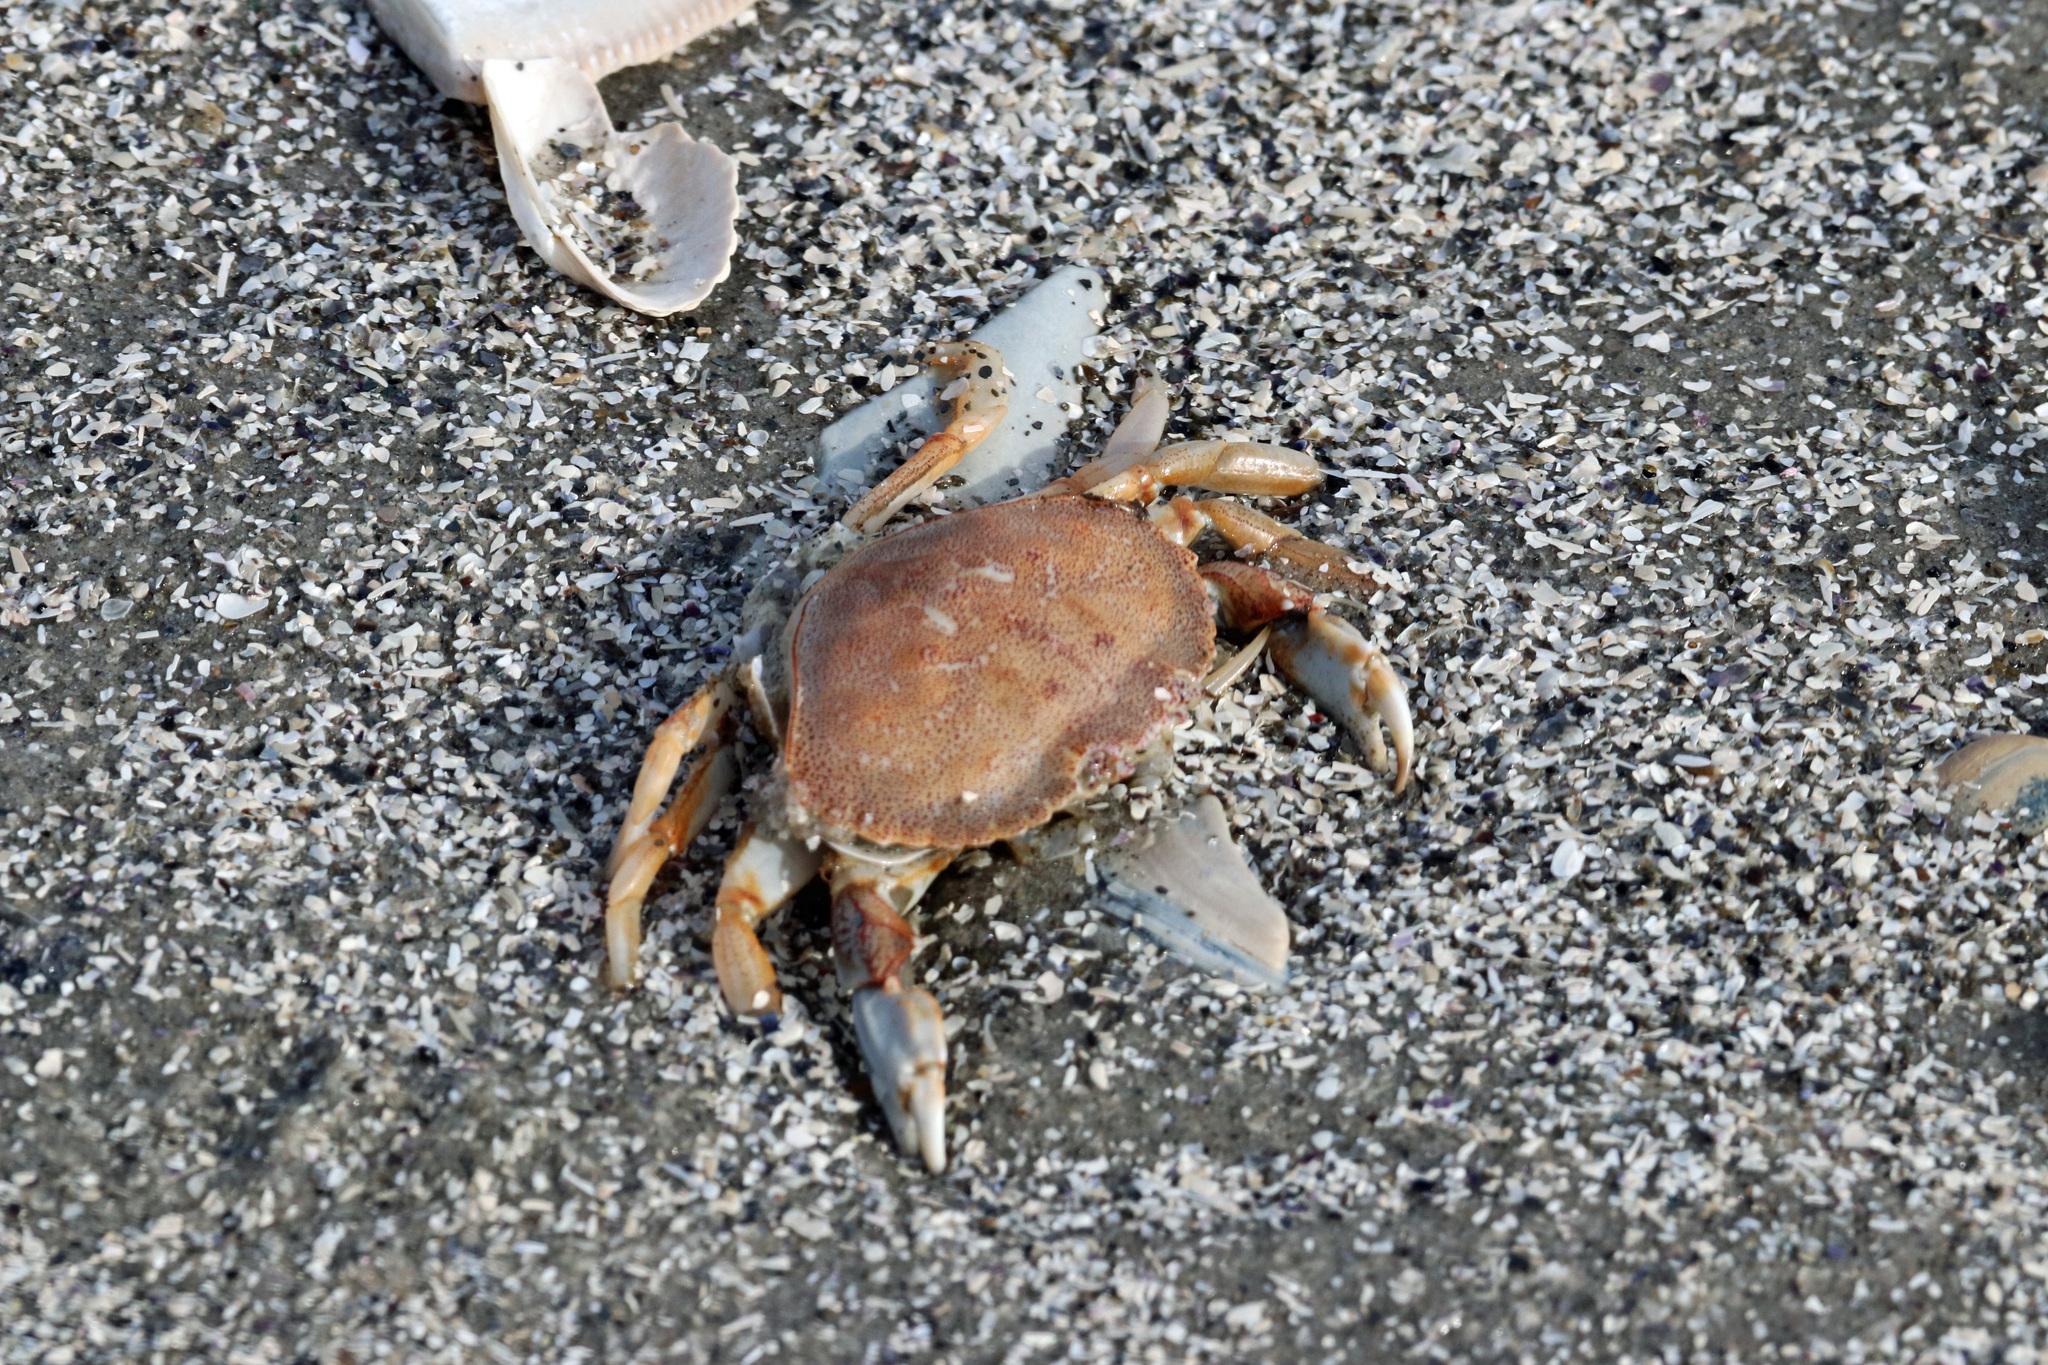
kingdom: Animalia
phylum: Arthropoda
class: Malacostraca
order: Decapoda
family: Cancridae
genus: Cancer
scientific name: Cancer irroratus
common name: Atlantic rock crab
